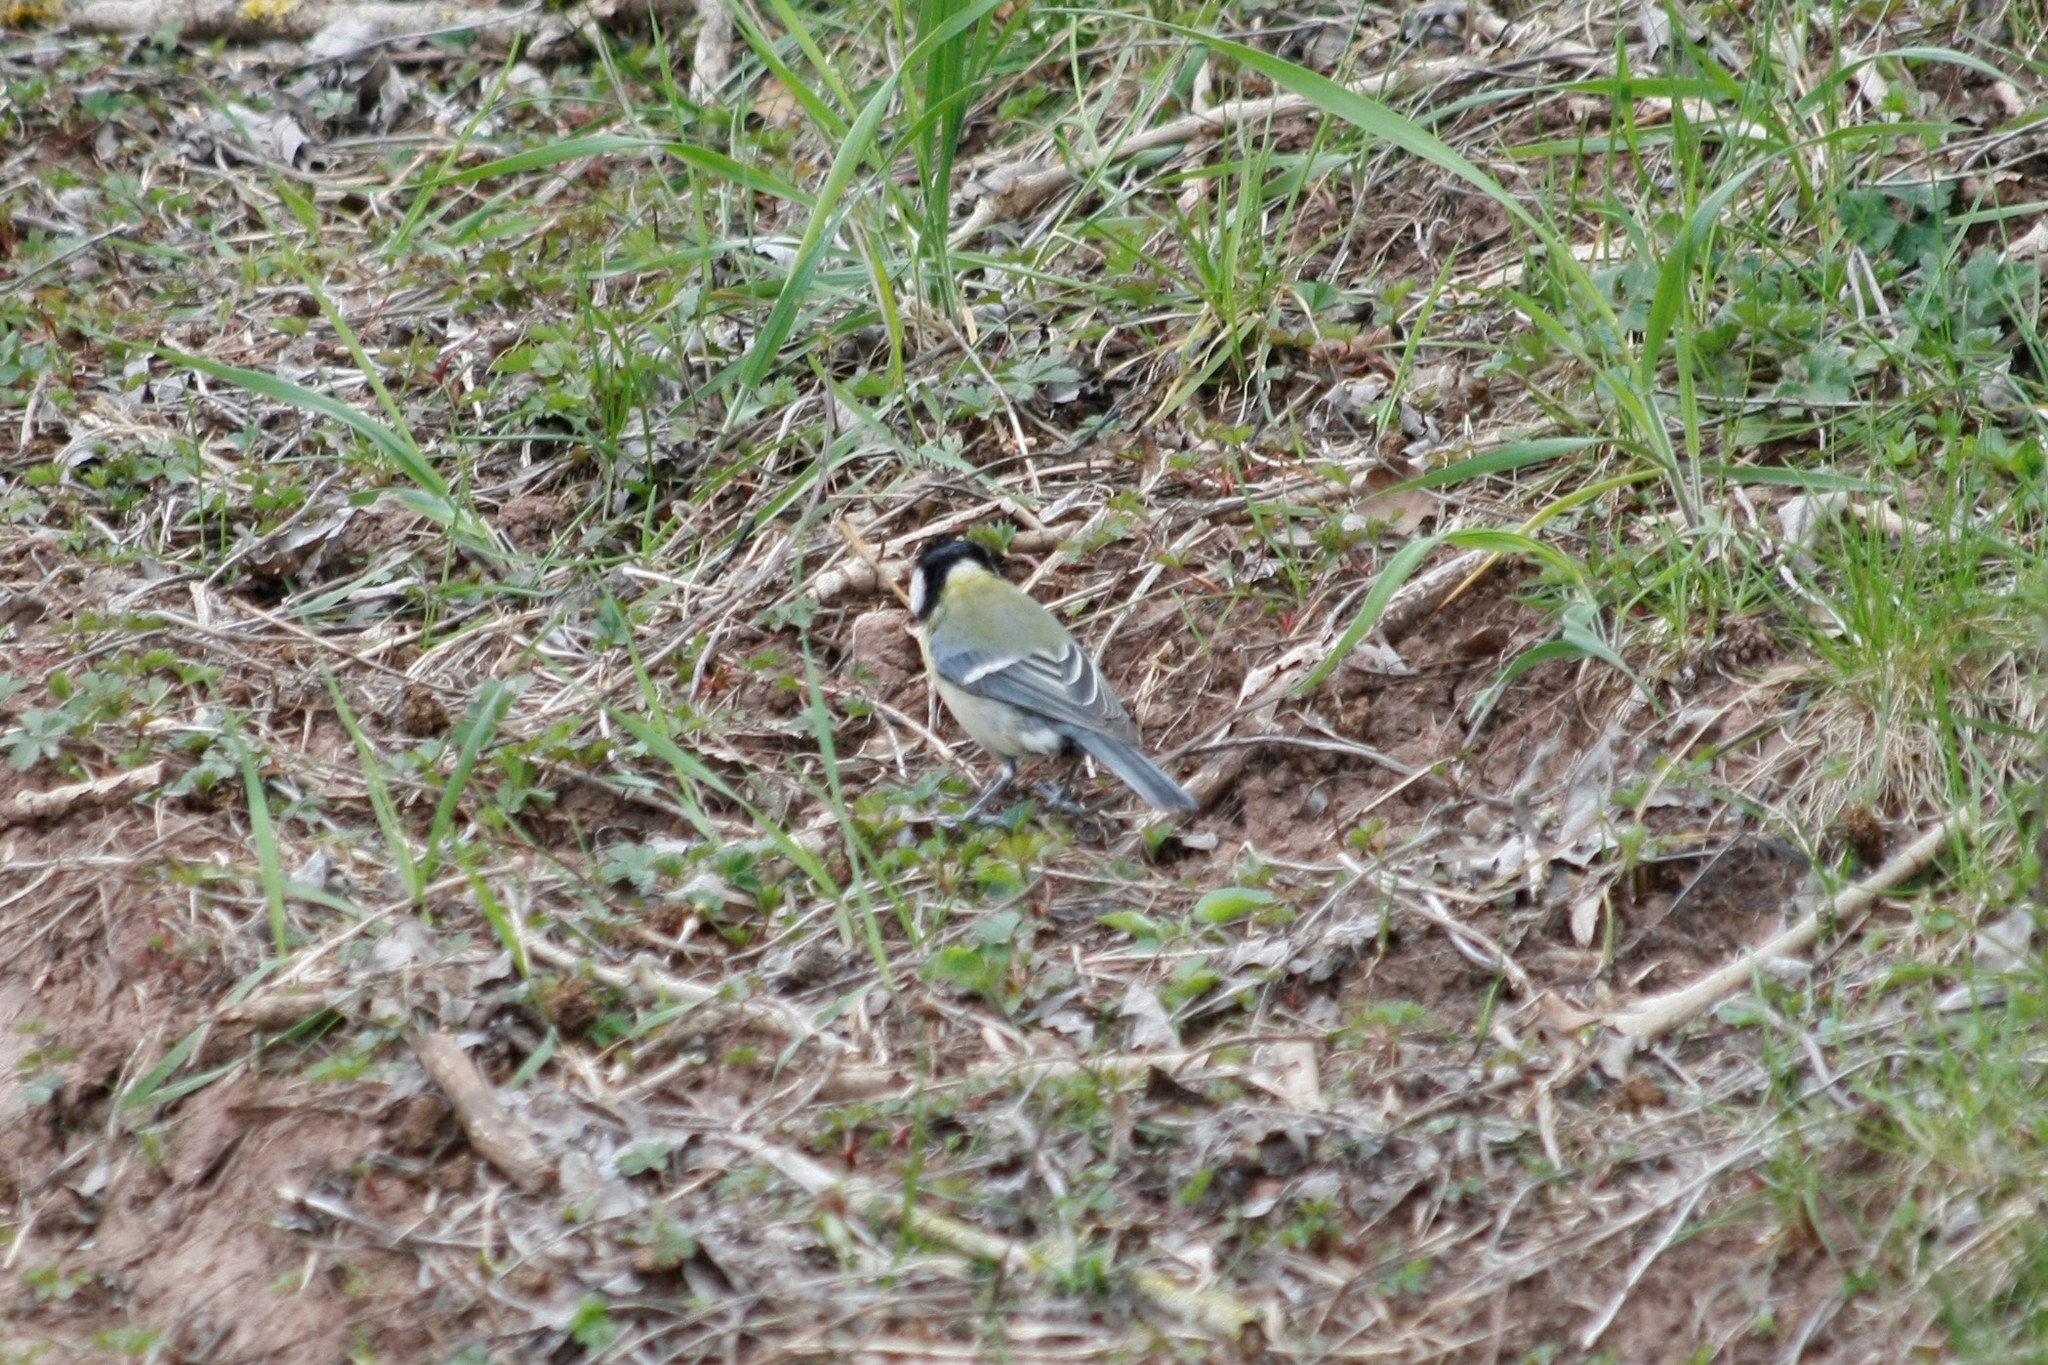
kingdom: Animalia
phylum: Chordata
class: Aves
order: Passeriformes
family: Paridae
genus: Parus
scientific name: Parus major
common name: Great tit
